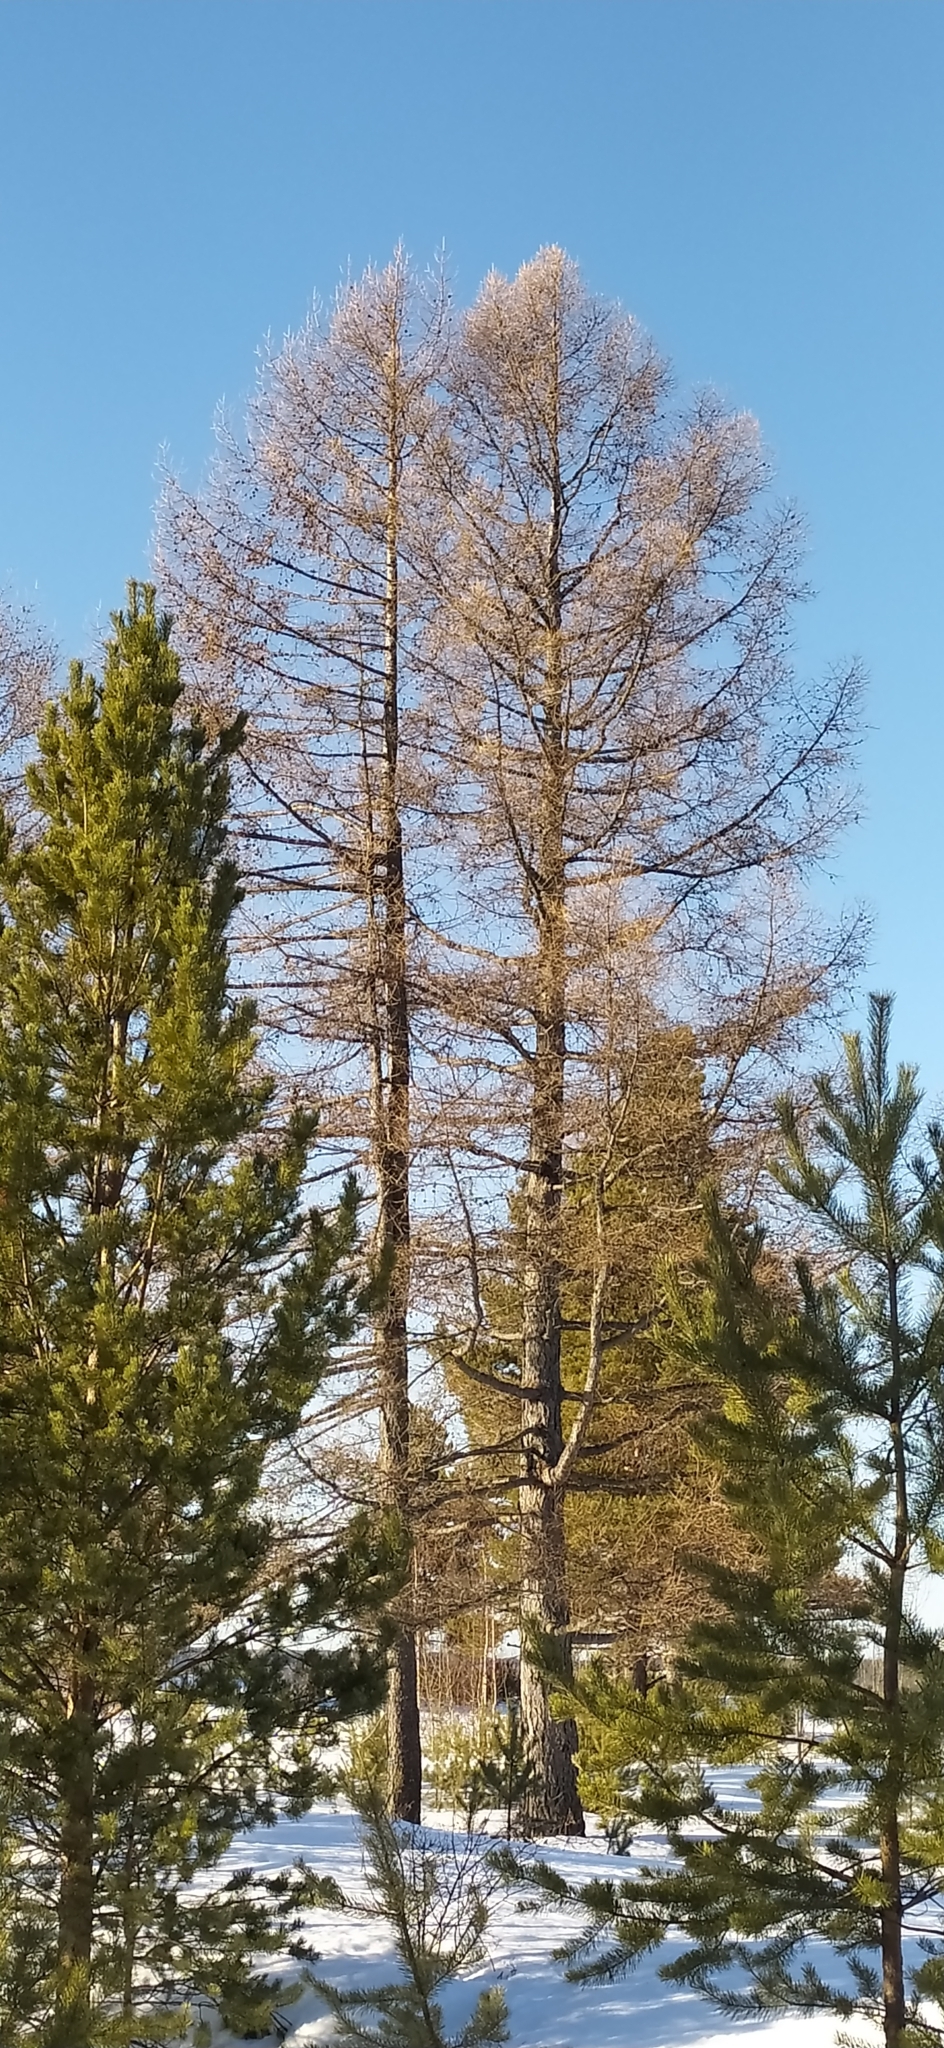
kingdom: Plantae
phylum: Tracheophyta
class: Pinopsida
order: Pinales
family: Pinaceae
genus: Larix
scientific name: Larix sibirica
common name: Siberian larch
